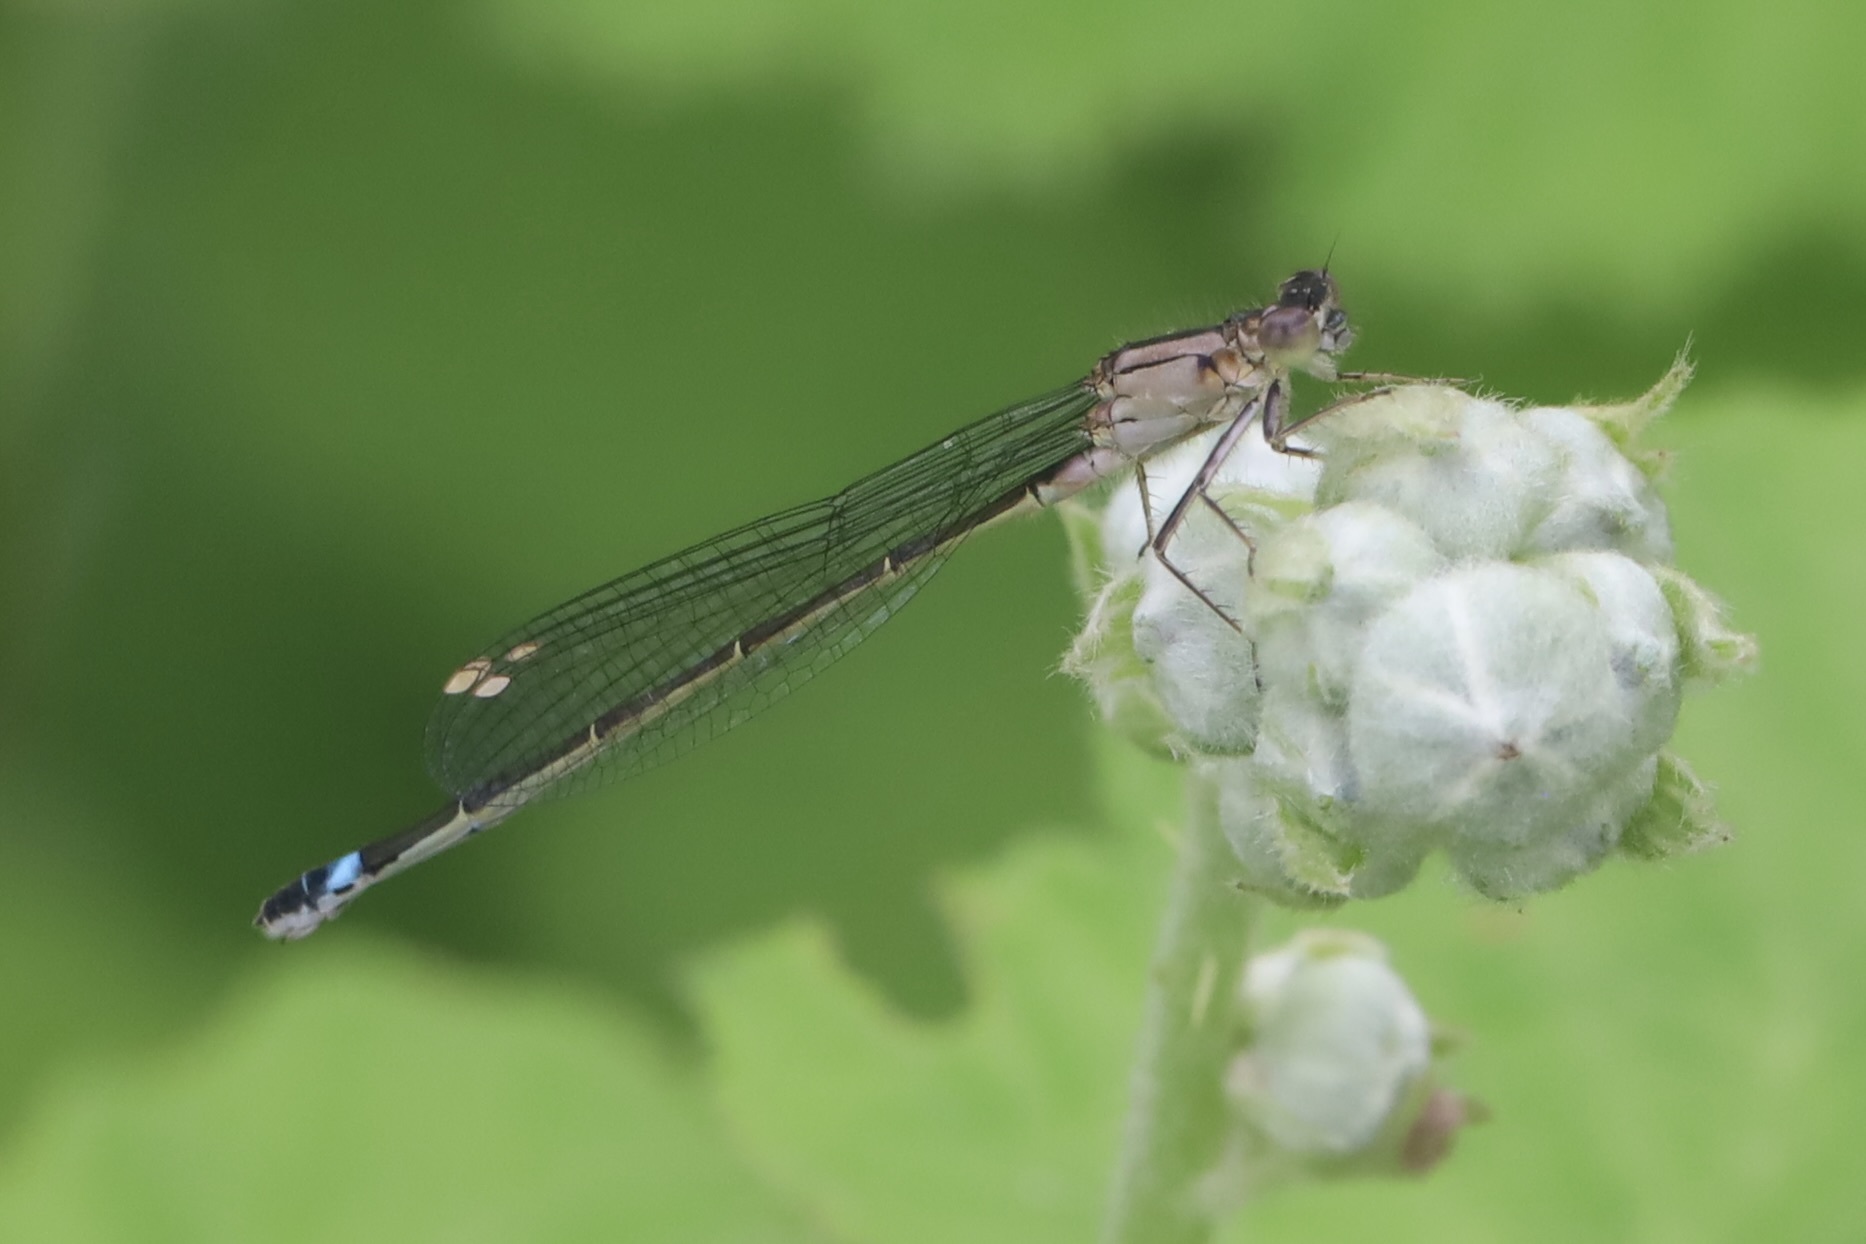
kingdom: Animalia
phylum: Arthropoda
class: Insecta
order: Odonata
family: Coenagrionidae
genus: Ischnura
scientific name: Ischnura cervula
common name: Pacific forktail
